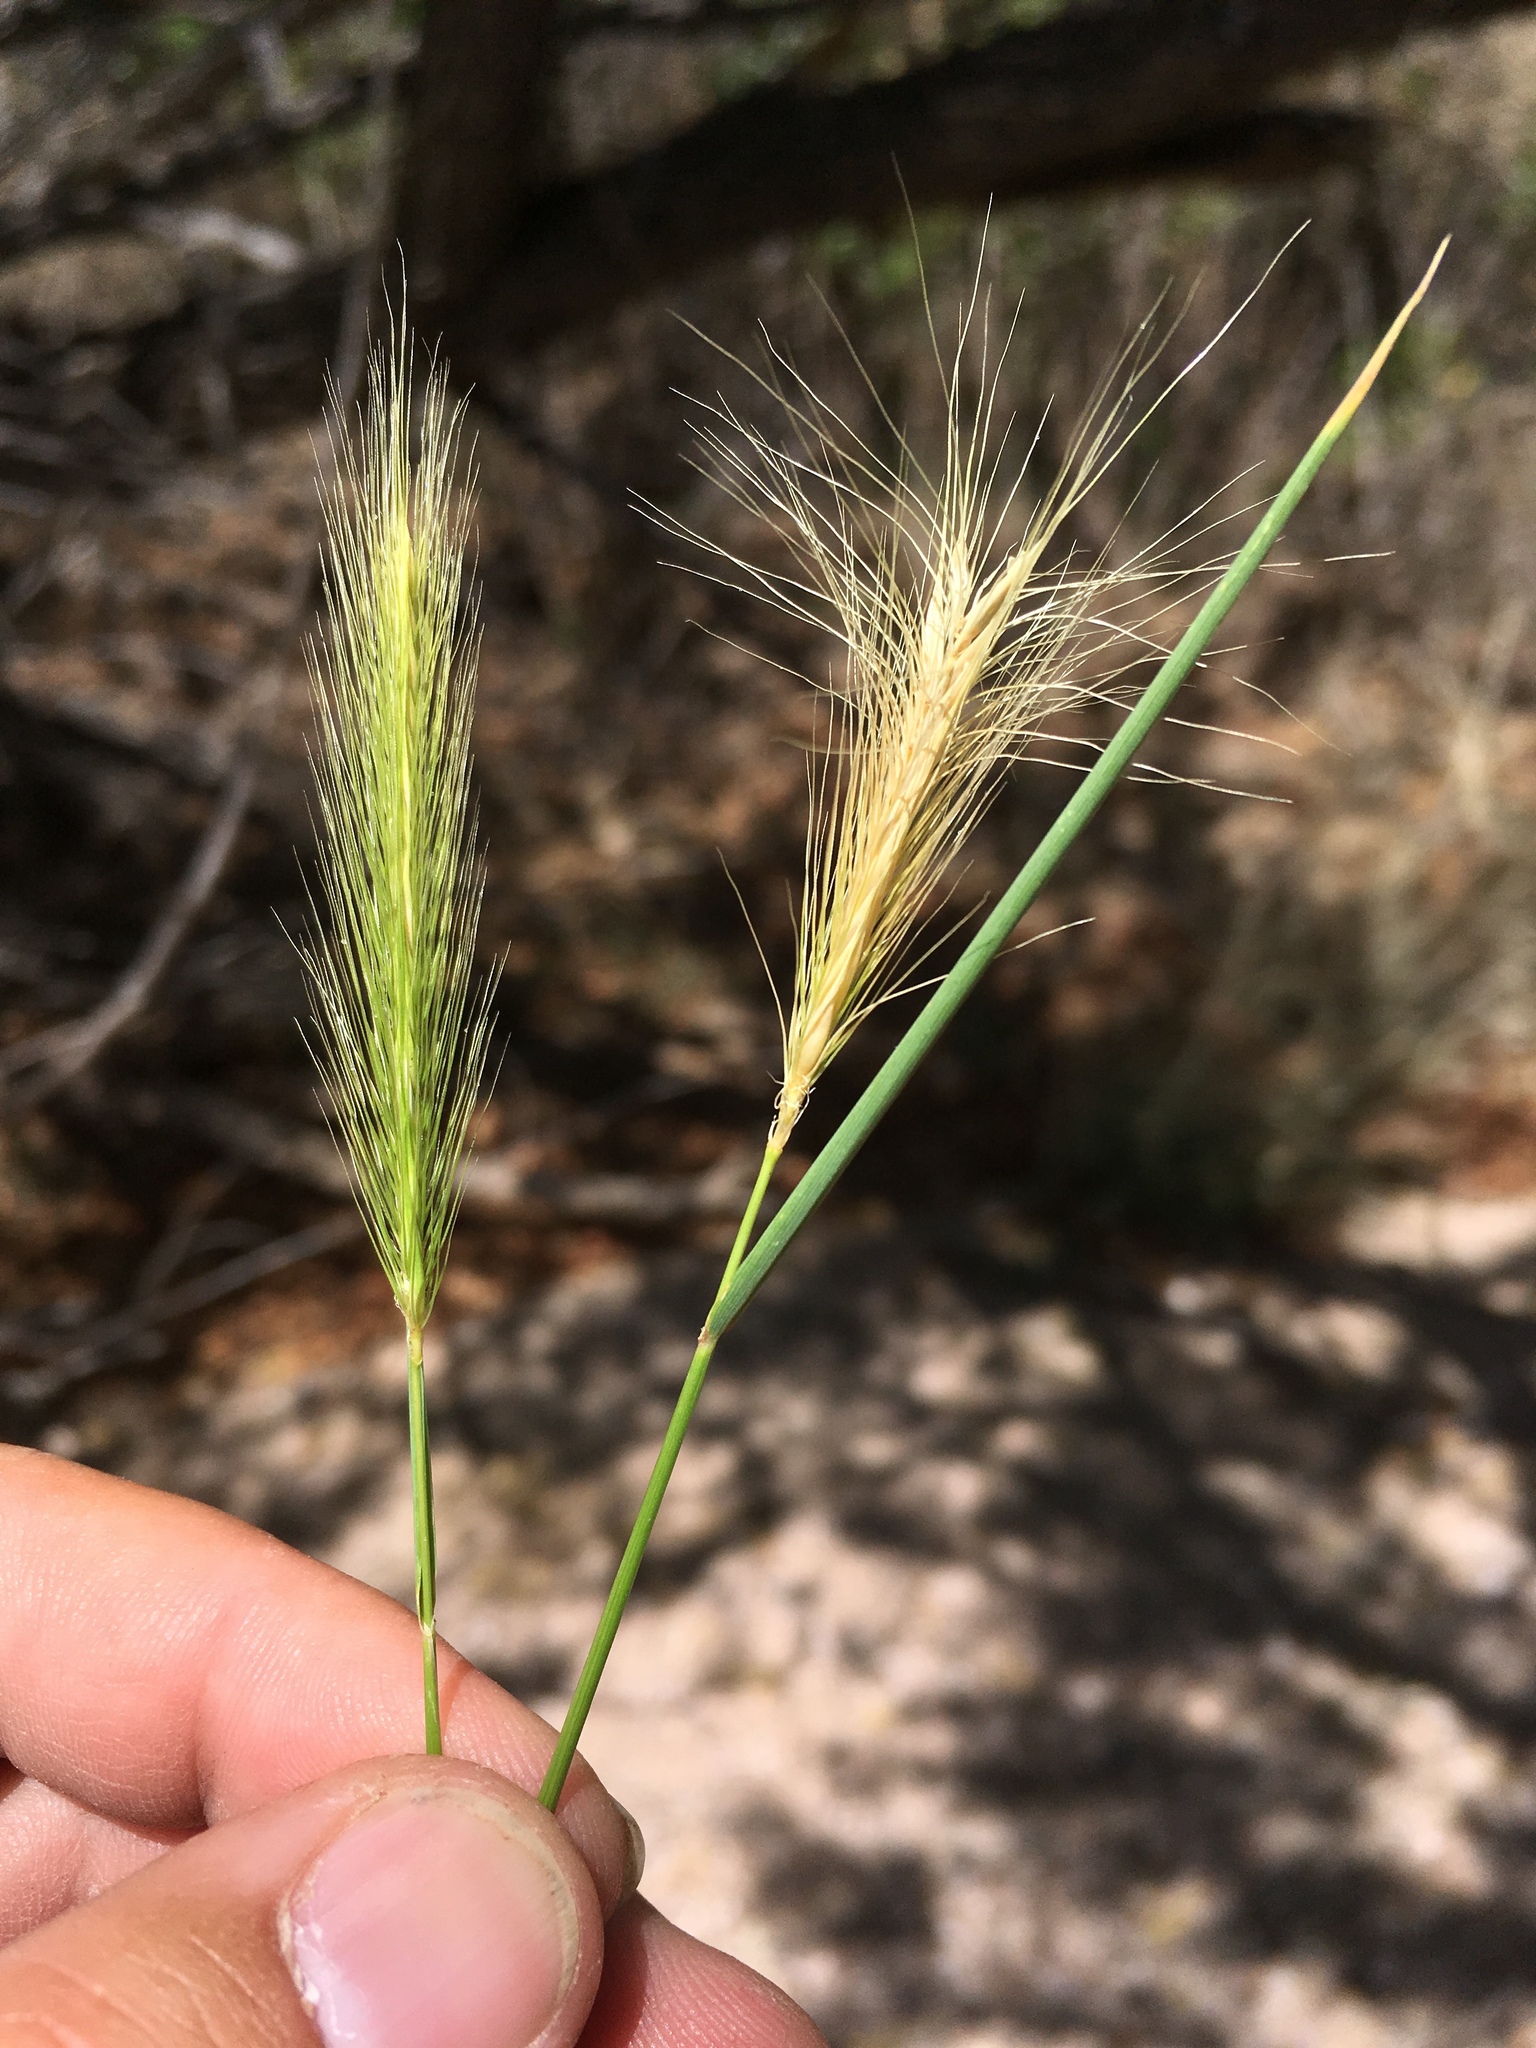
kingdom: Plantae
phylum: Tracheophyta
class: Liliopsida
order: Poales
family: Poaceae
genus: Hordeum
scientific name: Hordeum jubatum
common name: Foxtail barley
